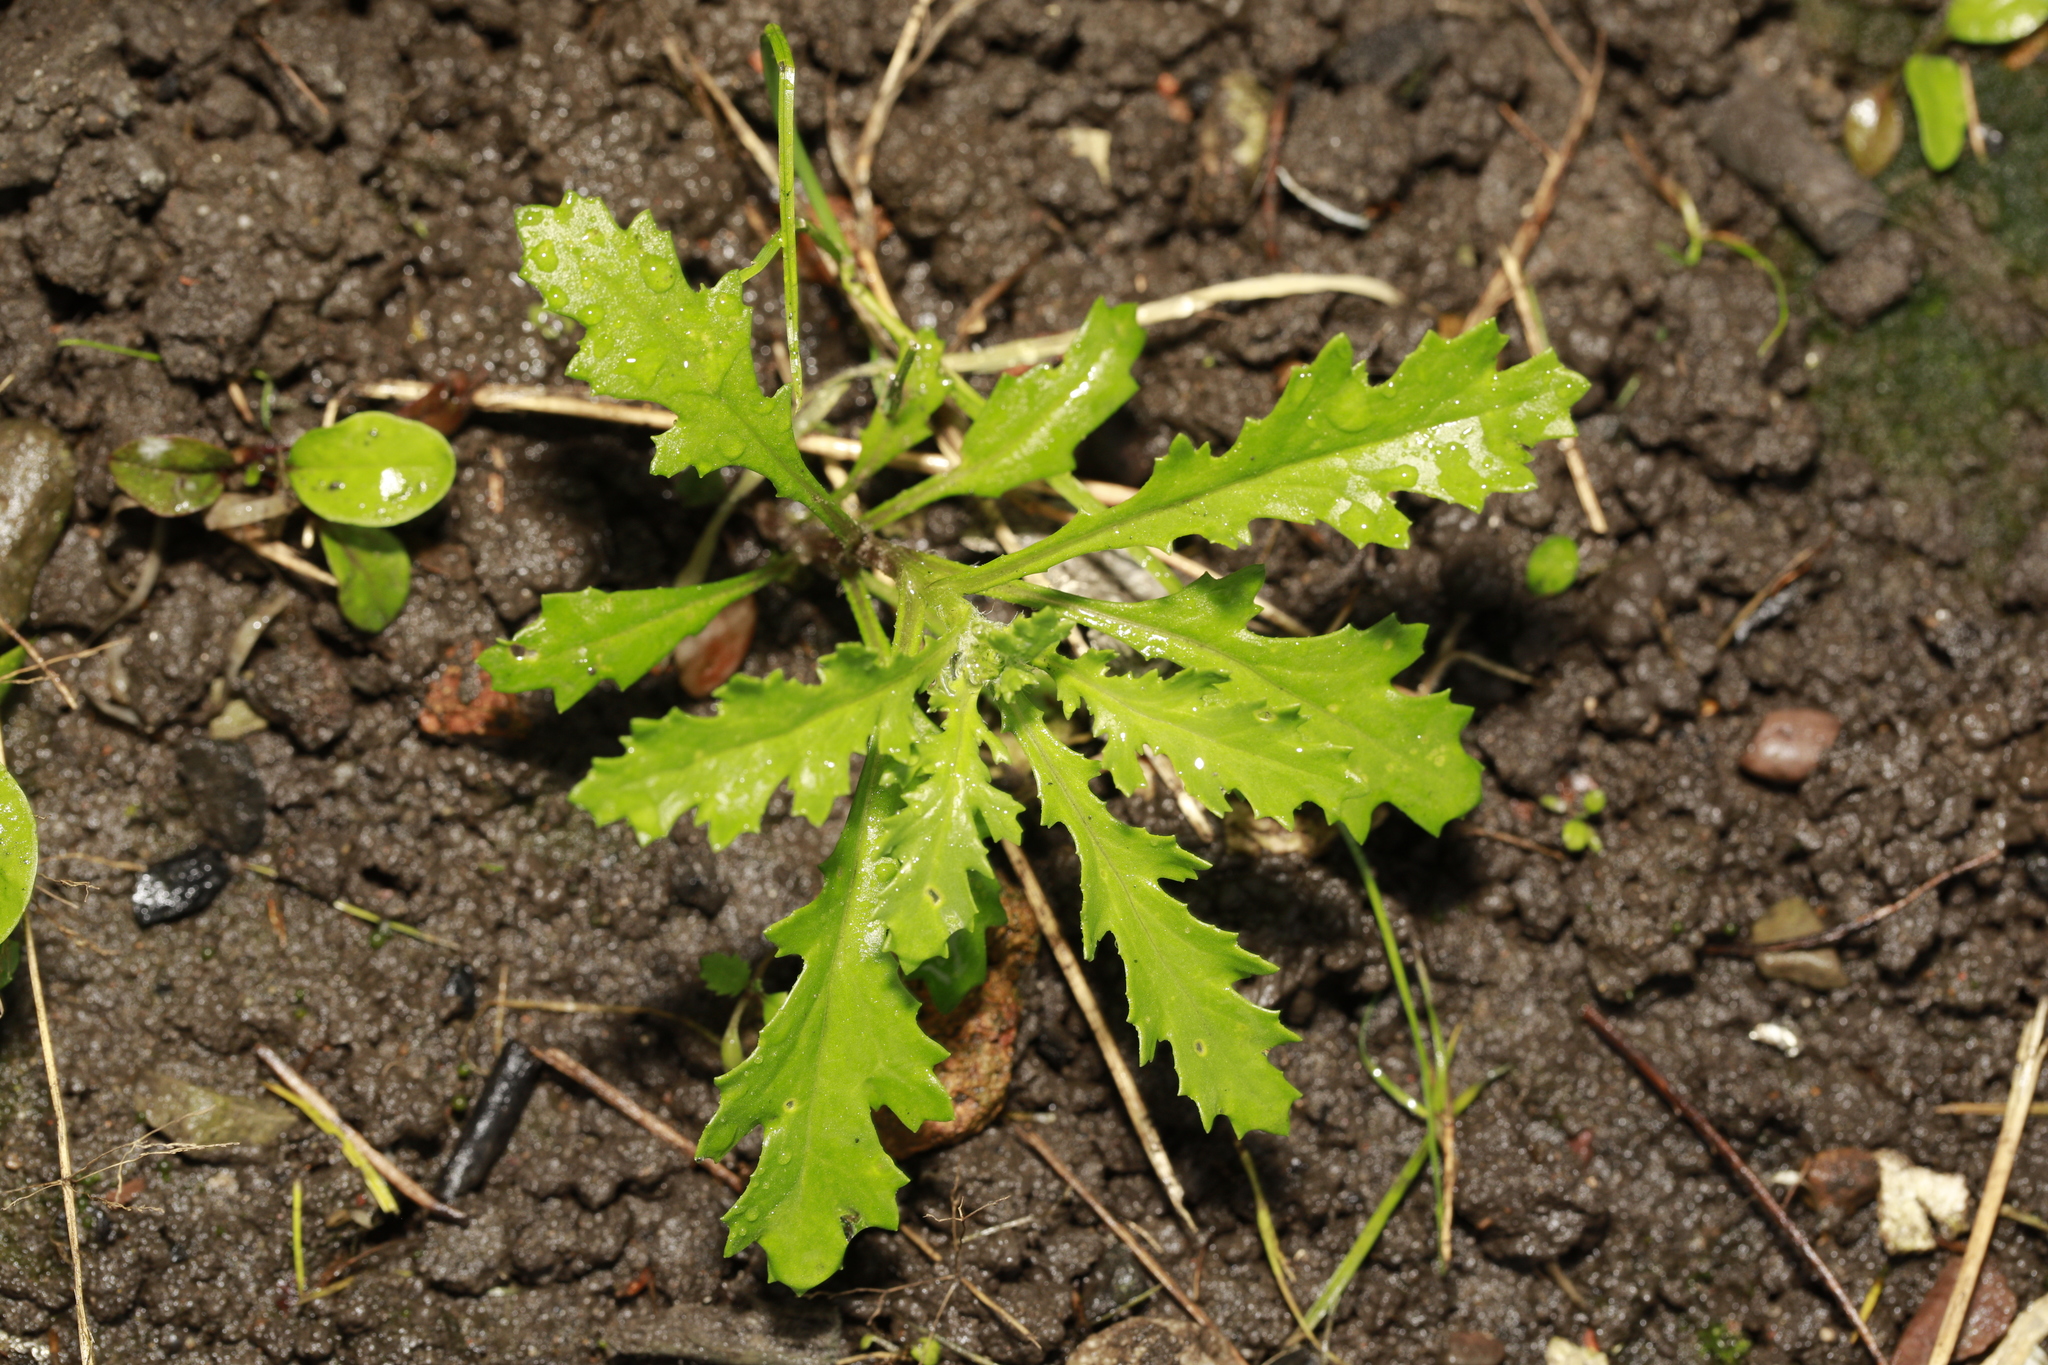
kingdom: Plantae
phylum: Tracheophyta
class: Magnoliopsida
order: Asterales
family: Asteraceae
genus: Senecio
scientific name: Senecio vulgaris
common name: Old-man-in-the-spring
